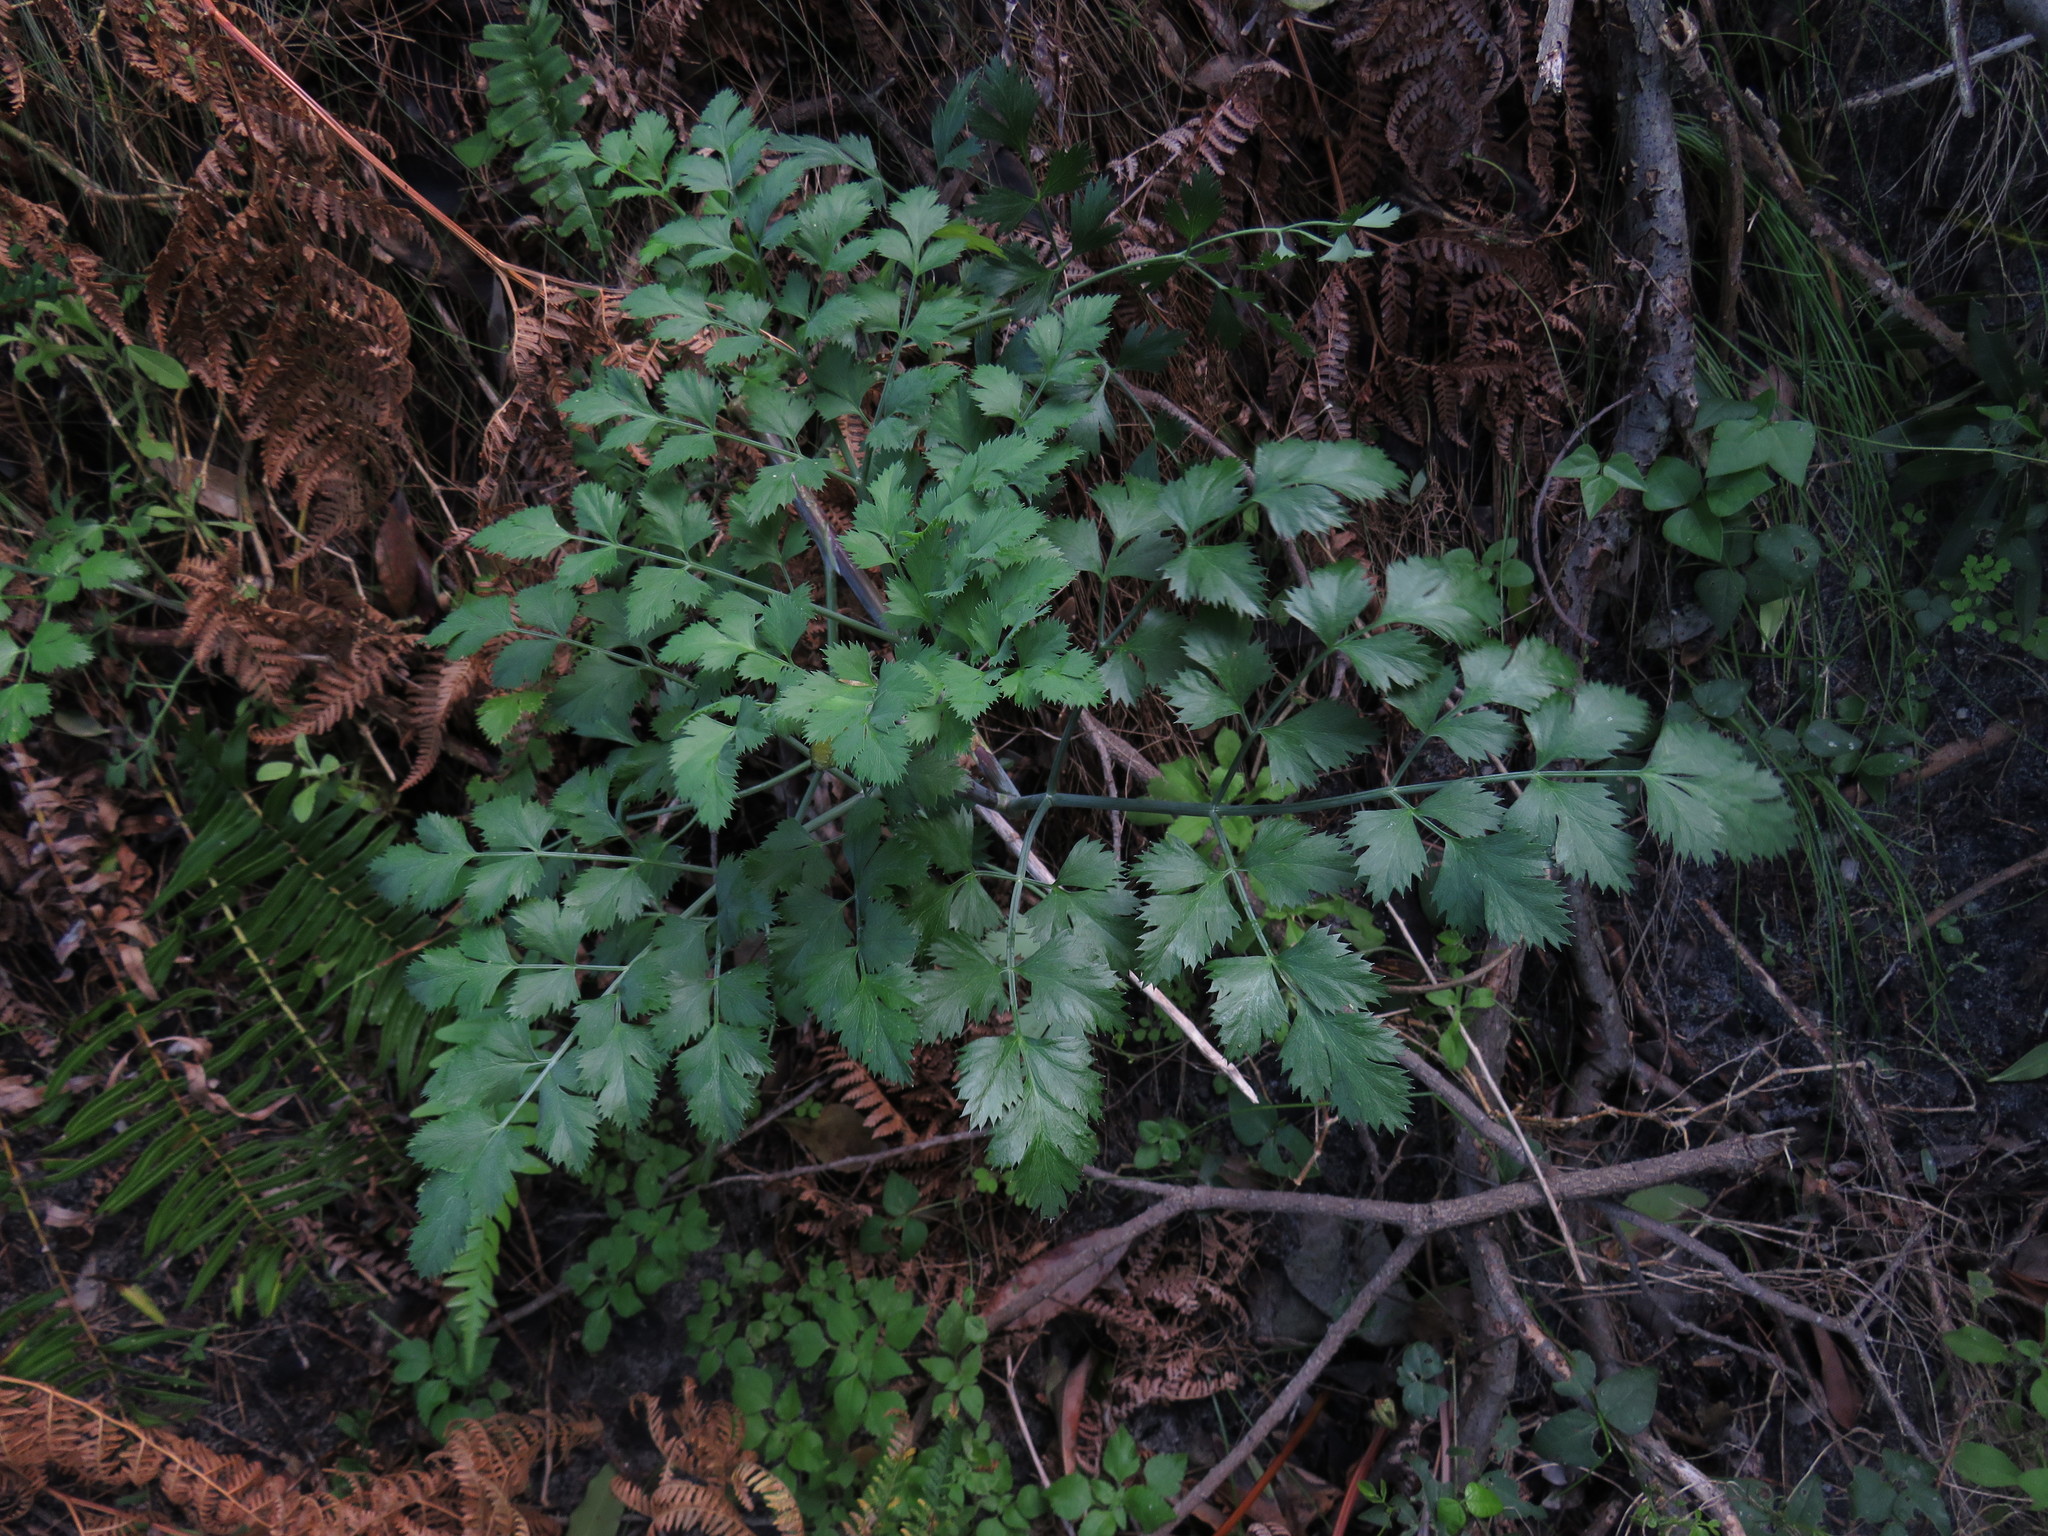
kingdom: Plantae
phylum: Tracheophyta
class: Magnoliopsida
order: Apiales
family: Apiaceae
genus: Notobubon
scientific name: Notobubon galbanum
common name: Blisterbush
